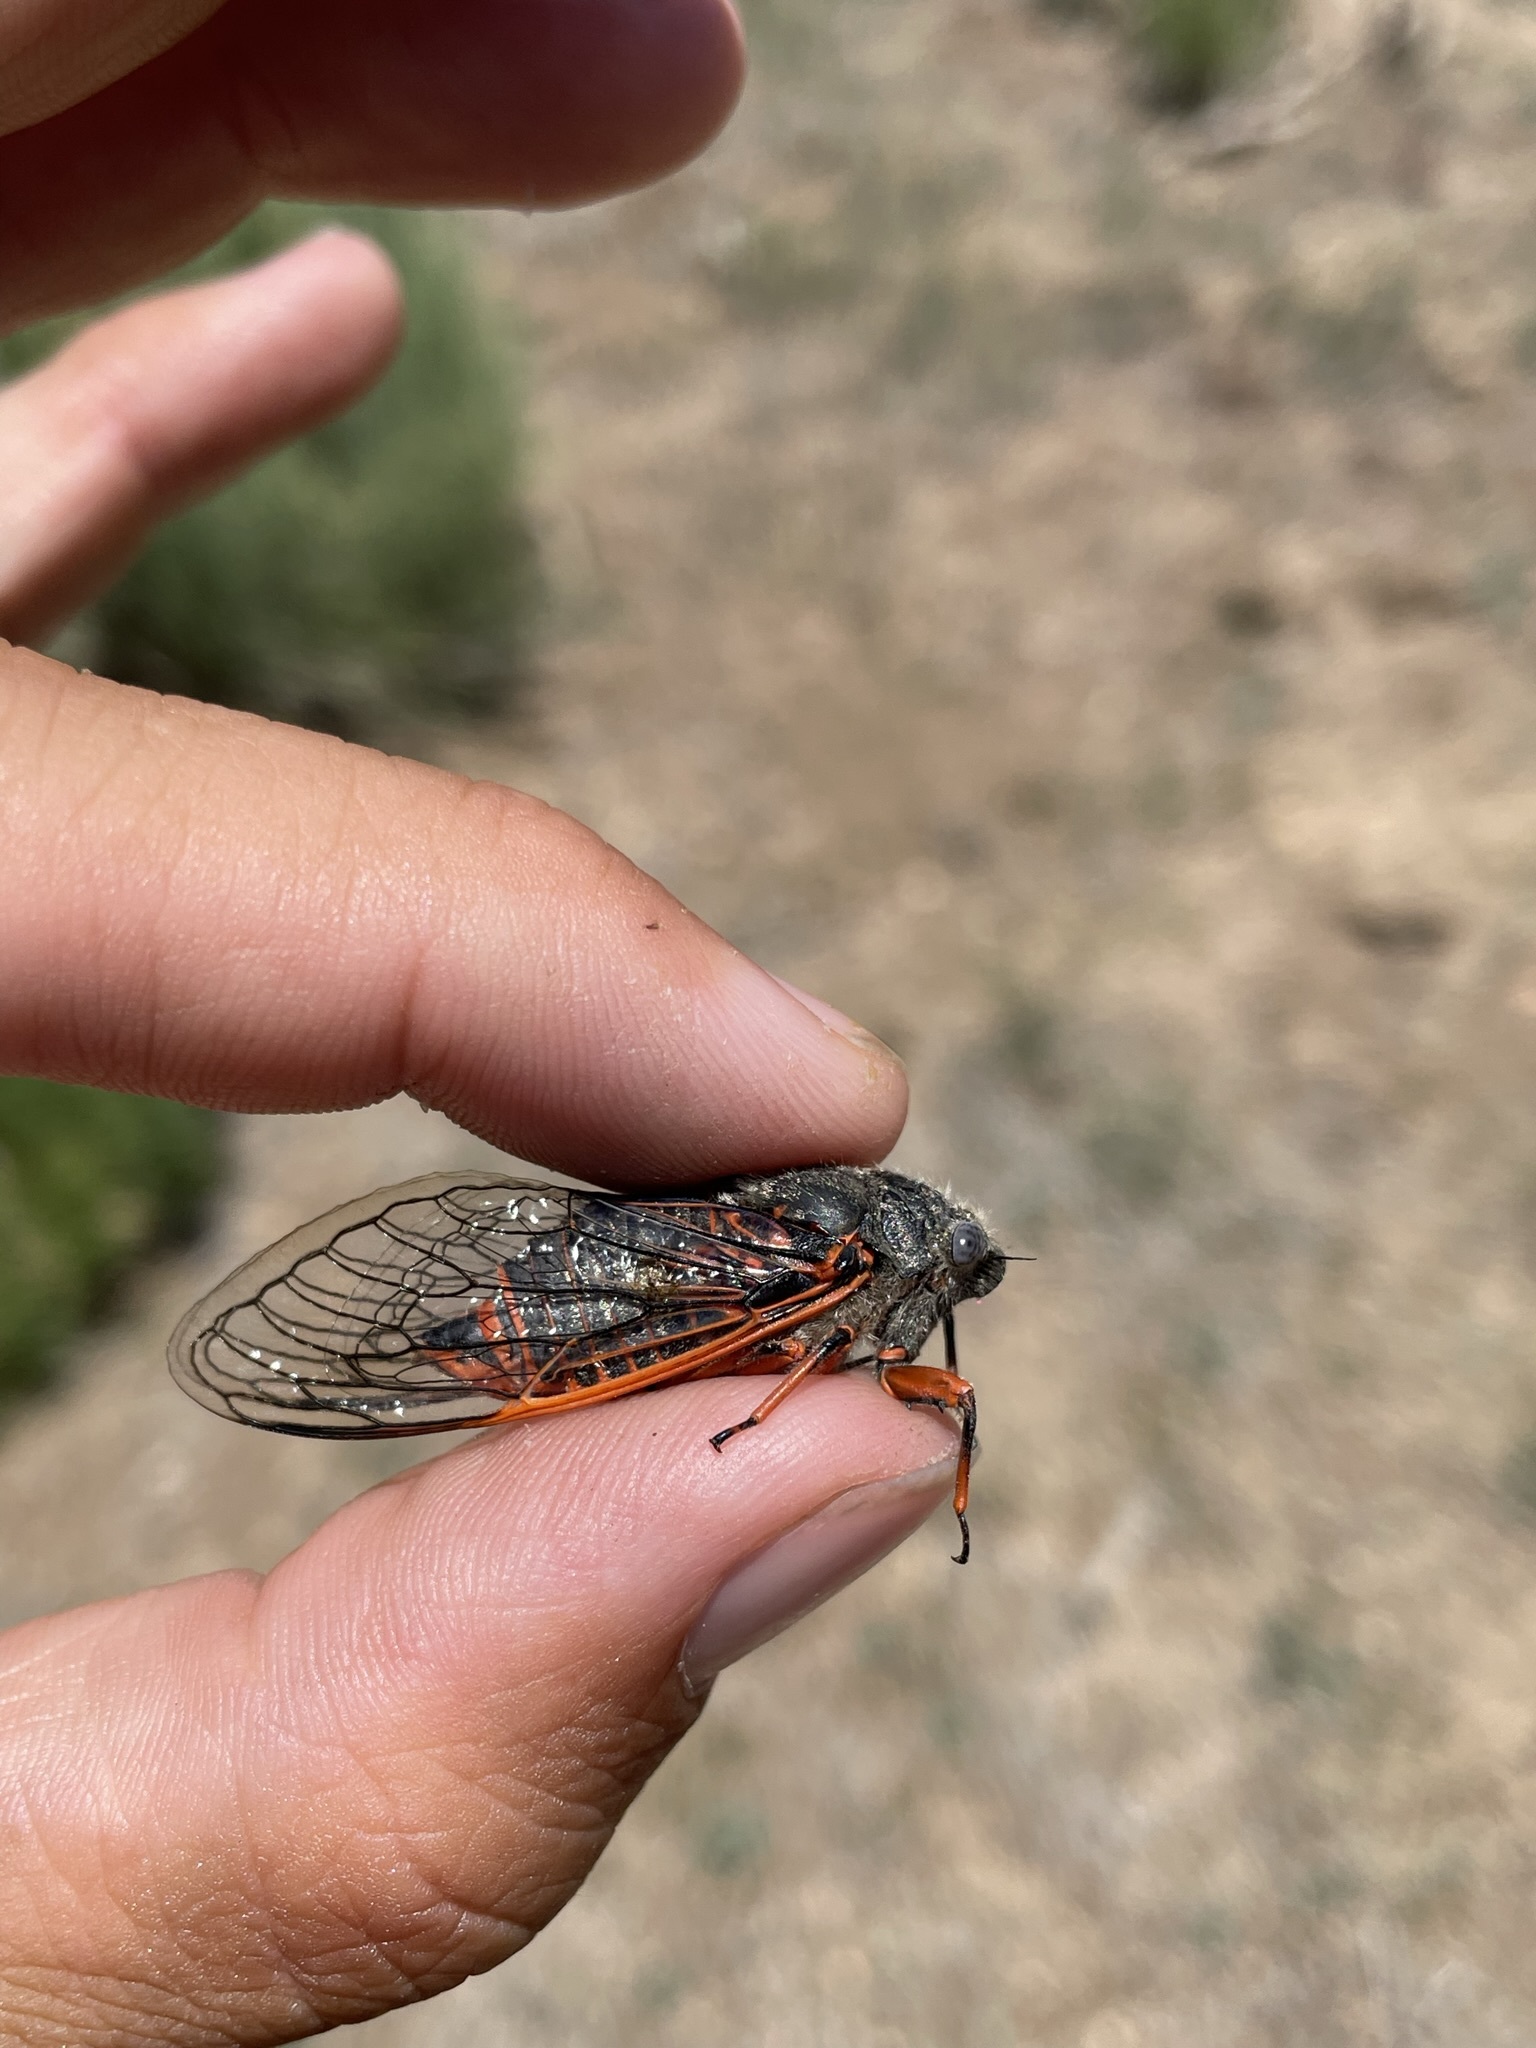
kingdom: Animalia
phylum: Arthropoda
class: Insecta
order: Hemiptera
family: Cicadidae
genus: Okanagana
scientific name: Okanagana cruentifera
